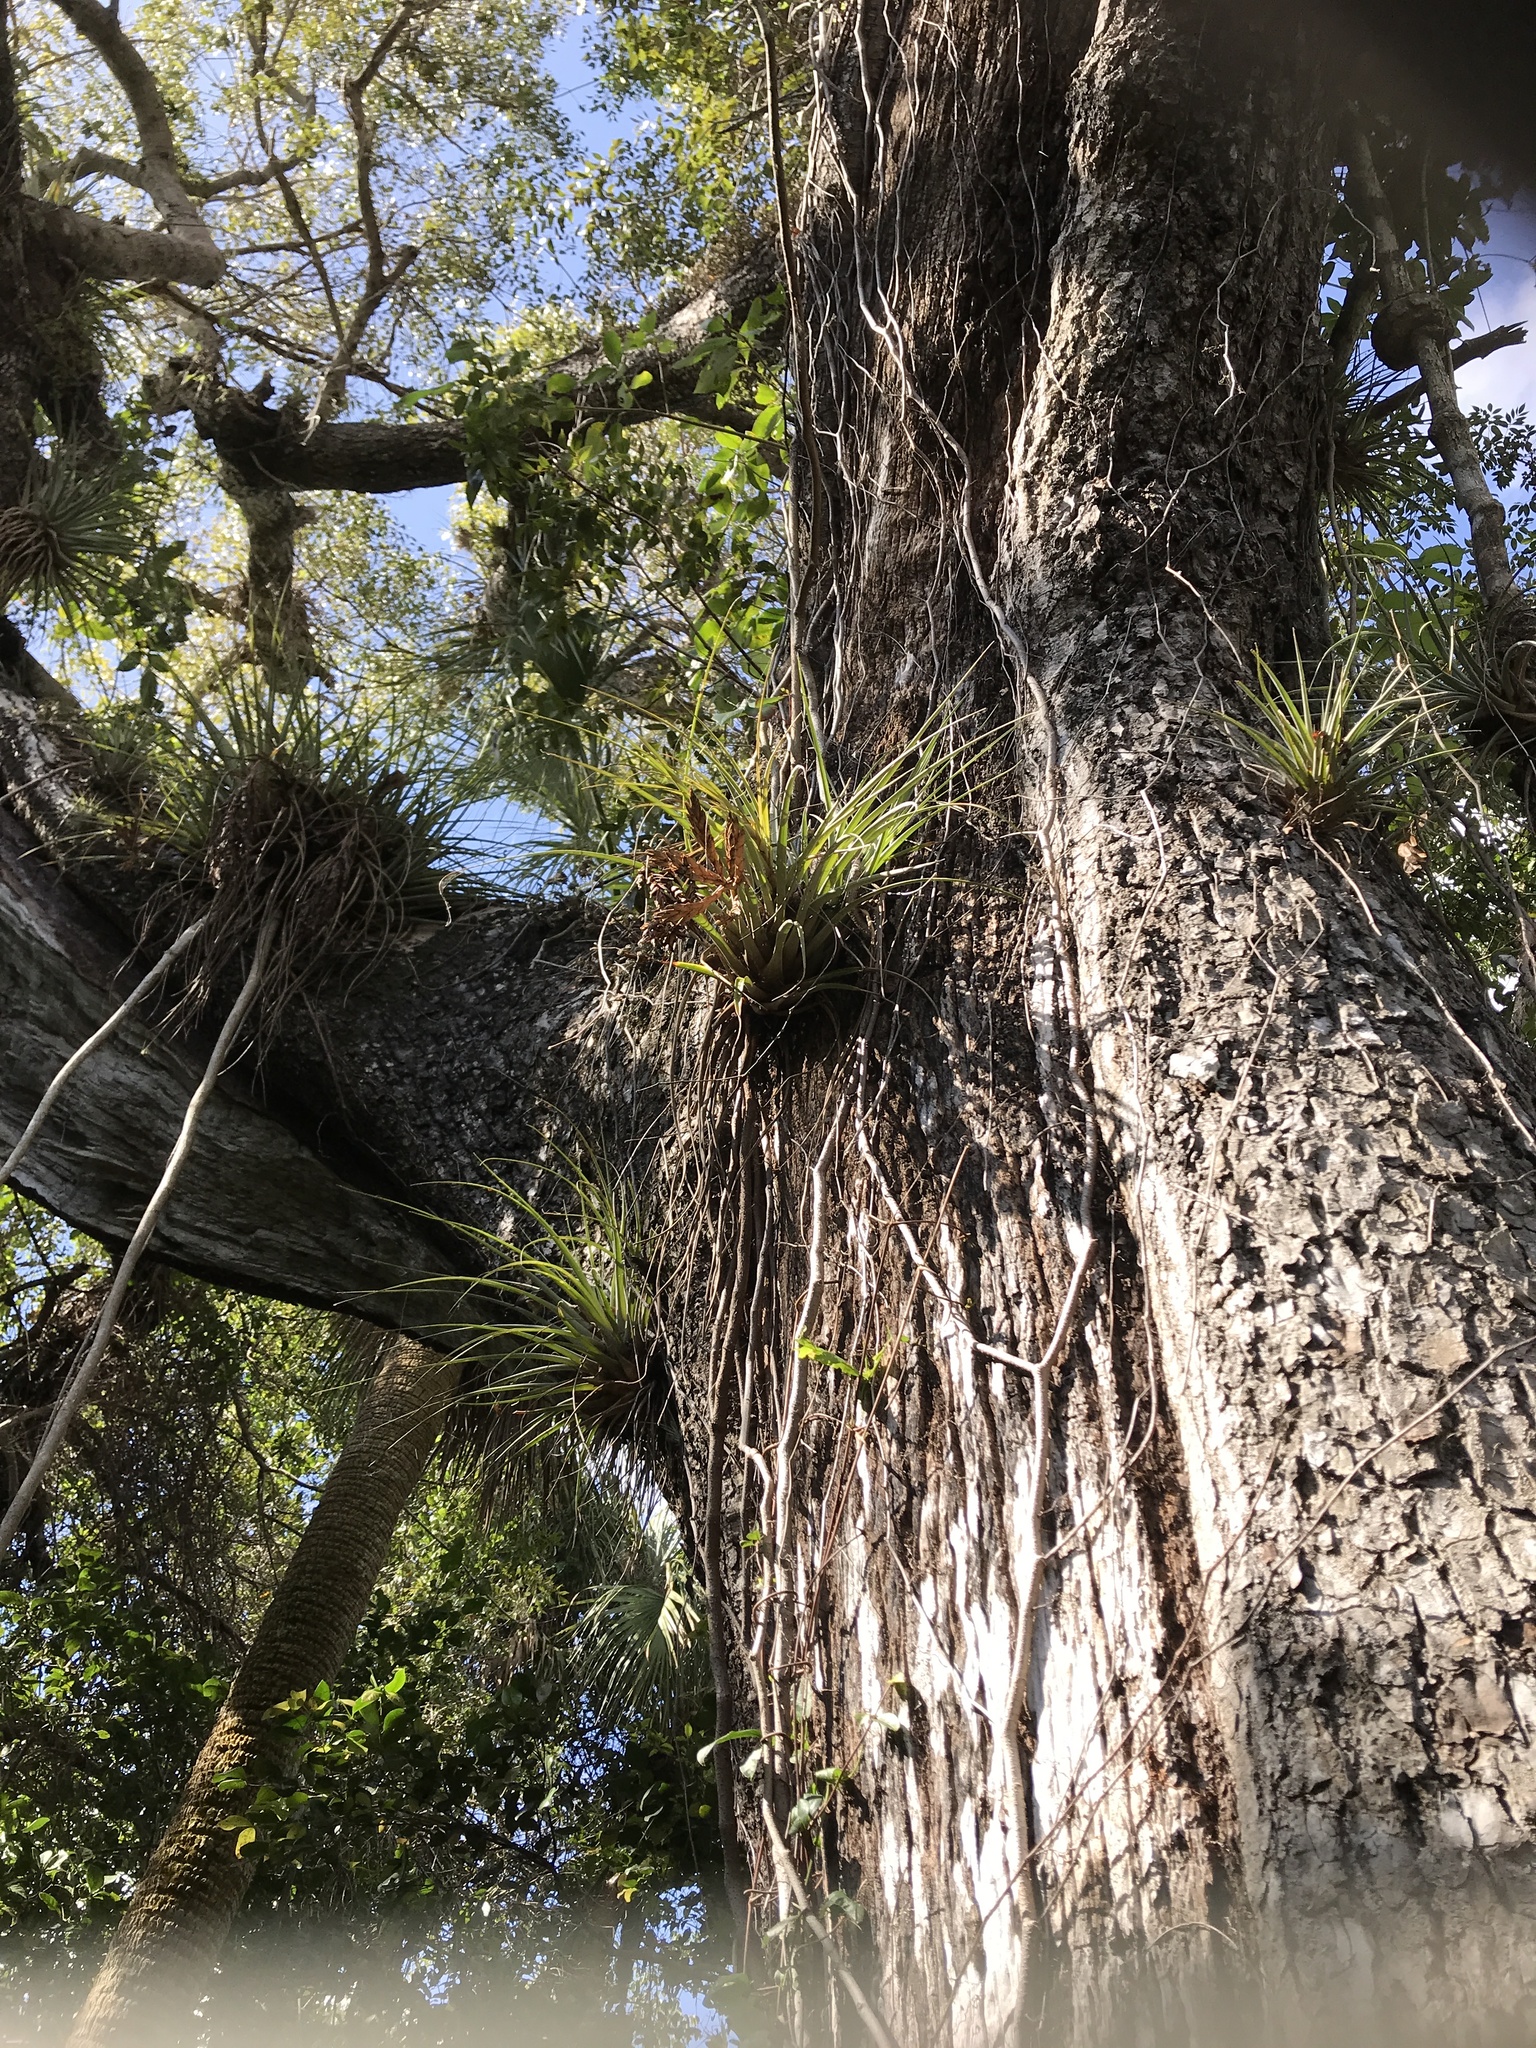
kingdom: Plantae
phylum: Tracheophyta
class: Liliopsida
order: Poales
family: Bromeliaceae
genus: Tillandsia
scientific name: Tillandsia fasciculata
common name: Giant airplant
